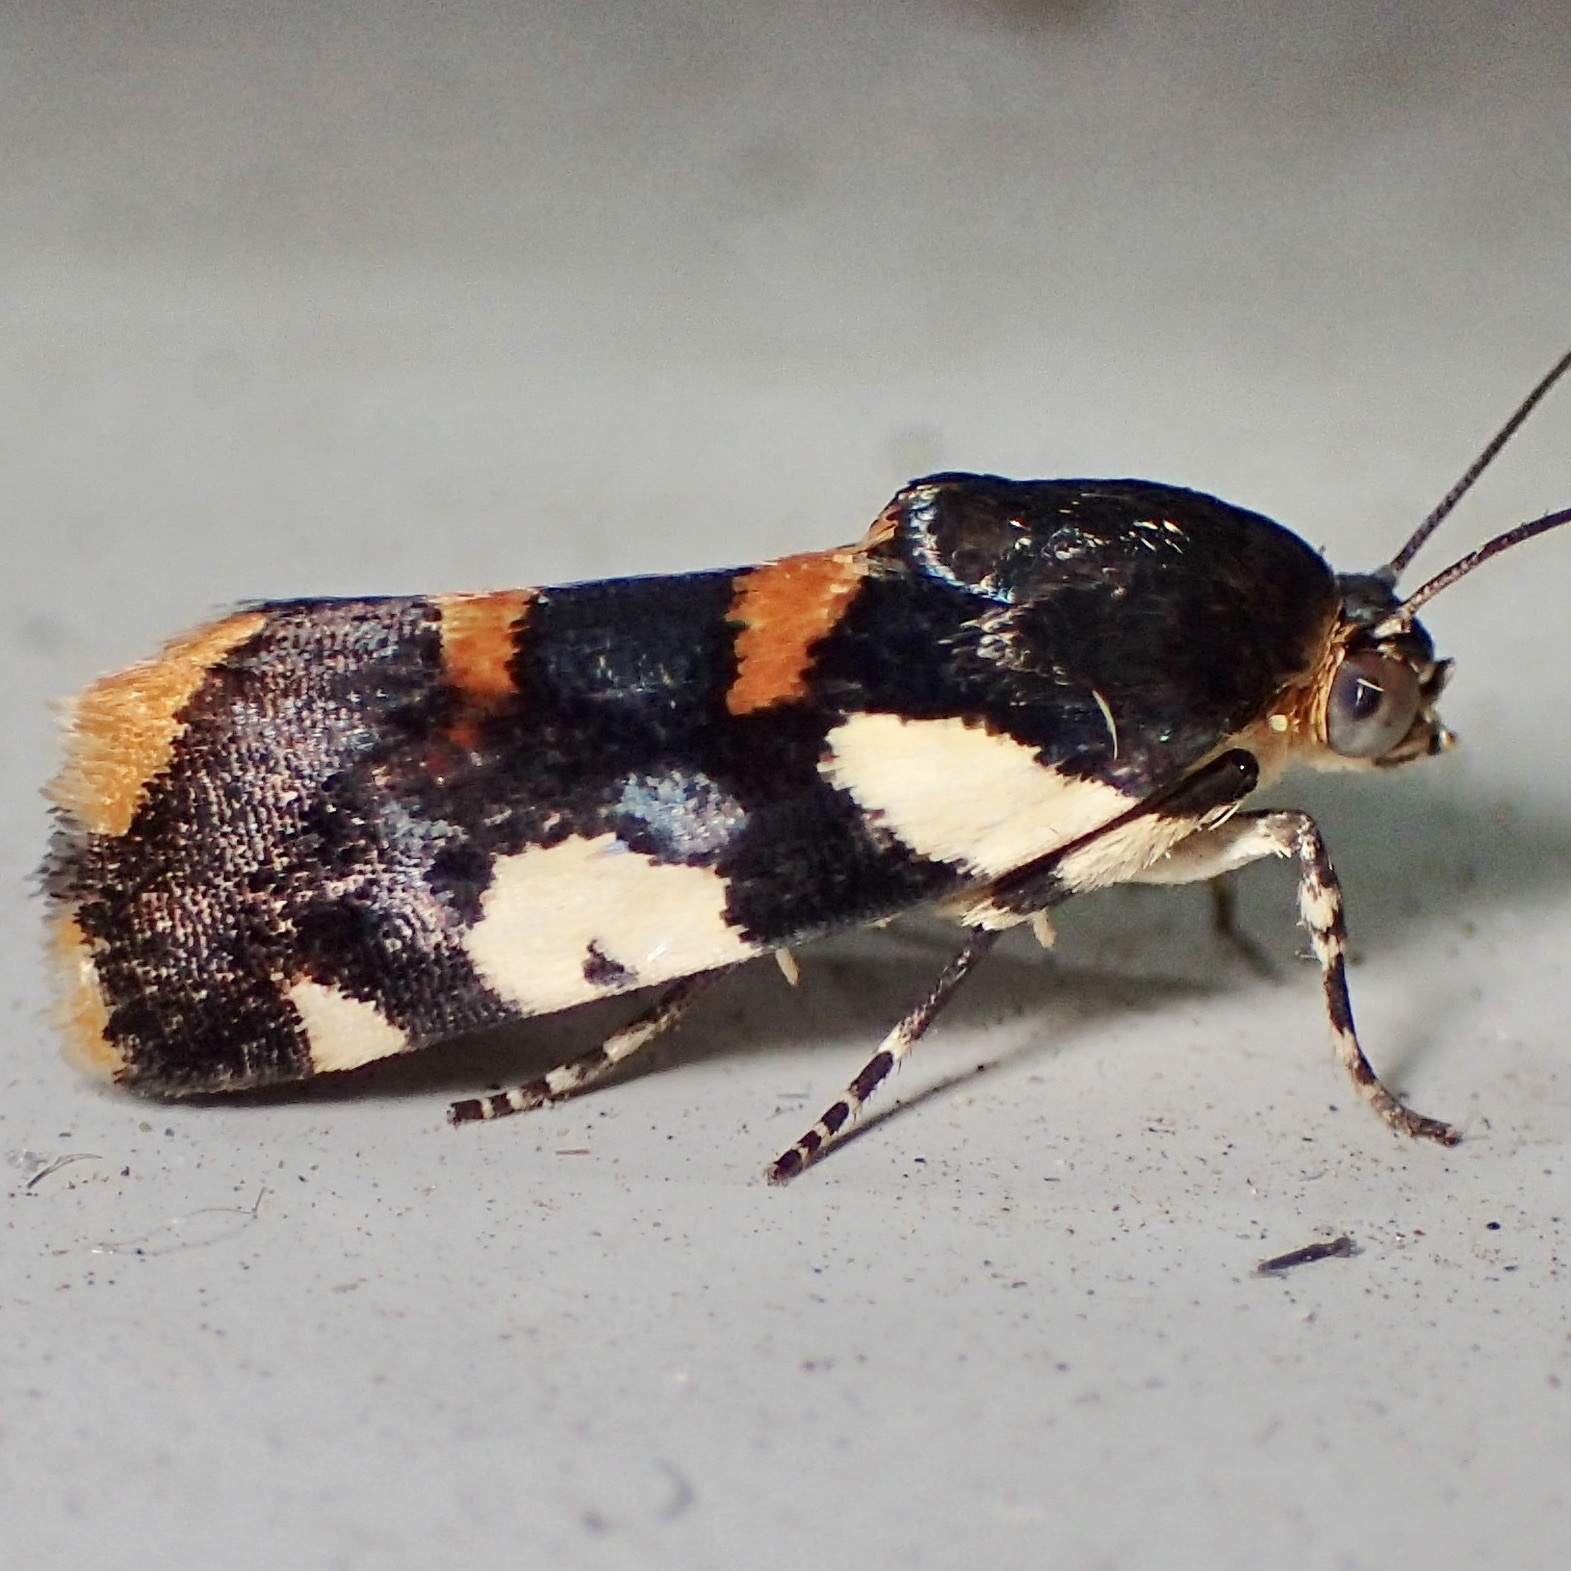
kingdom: Animalia
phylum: Arthropoda
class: Insecta
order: Lepidoptera
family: Noctuidae
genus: Acontia
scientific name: Acontia dama
